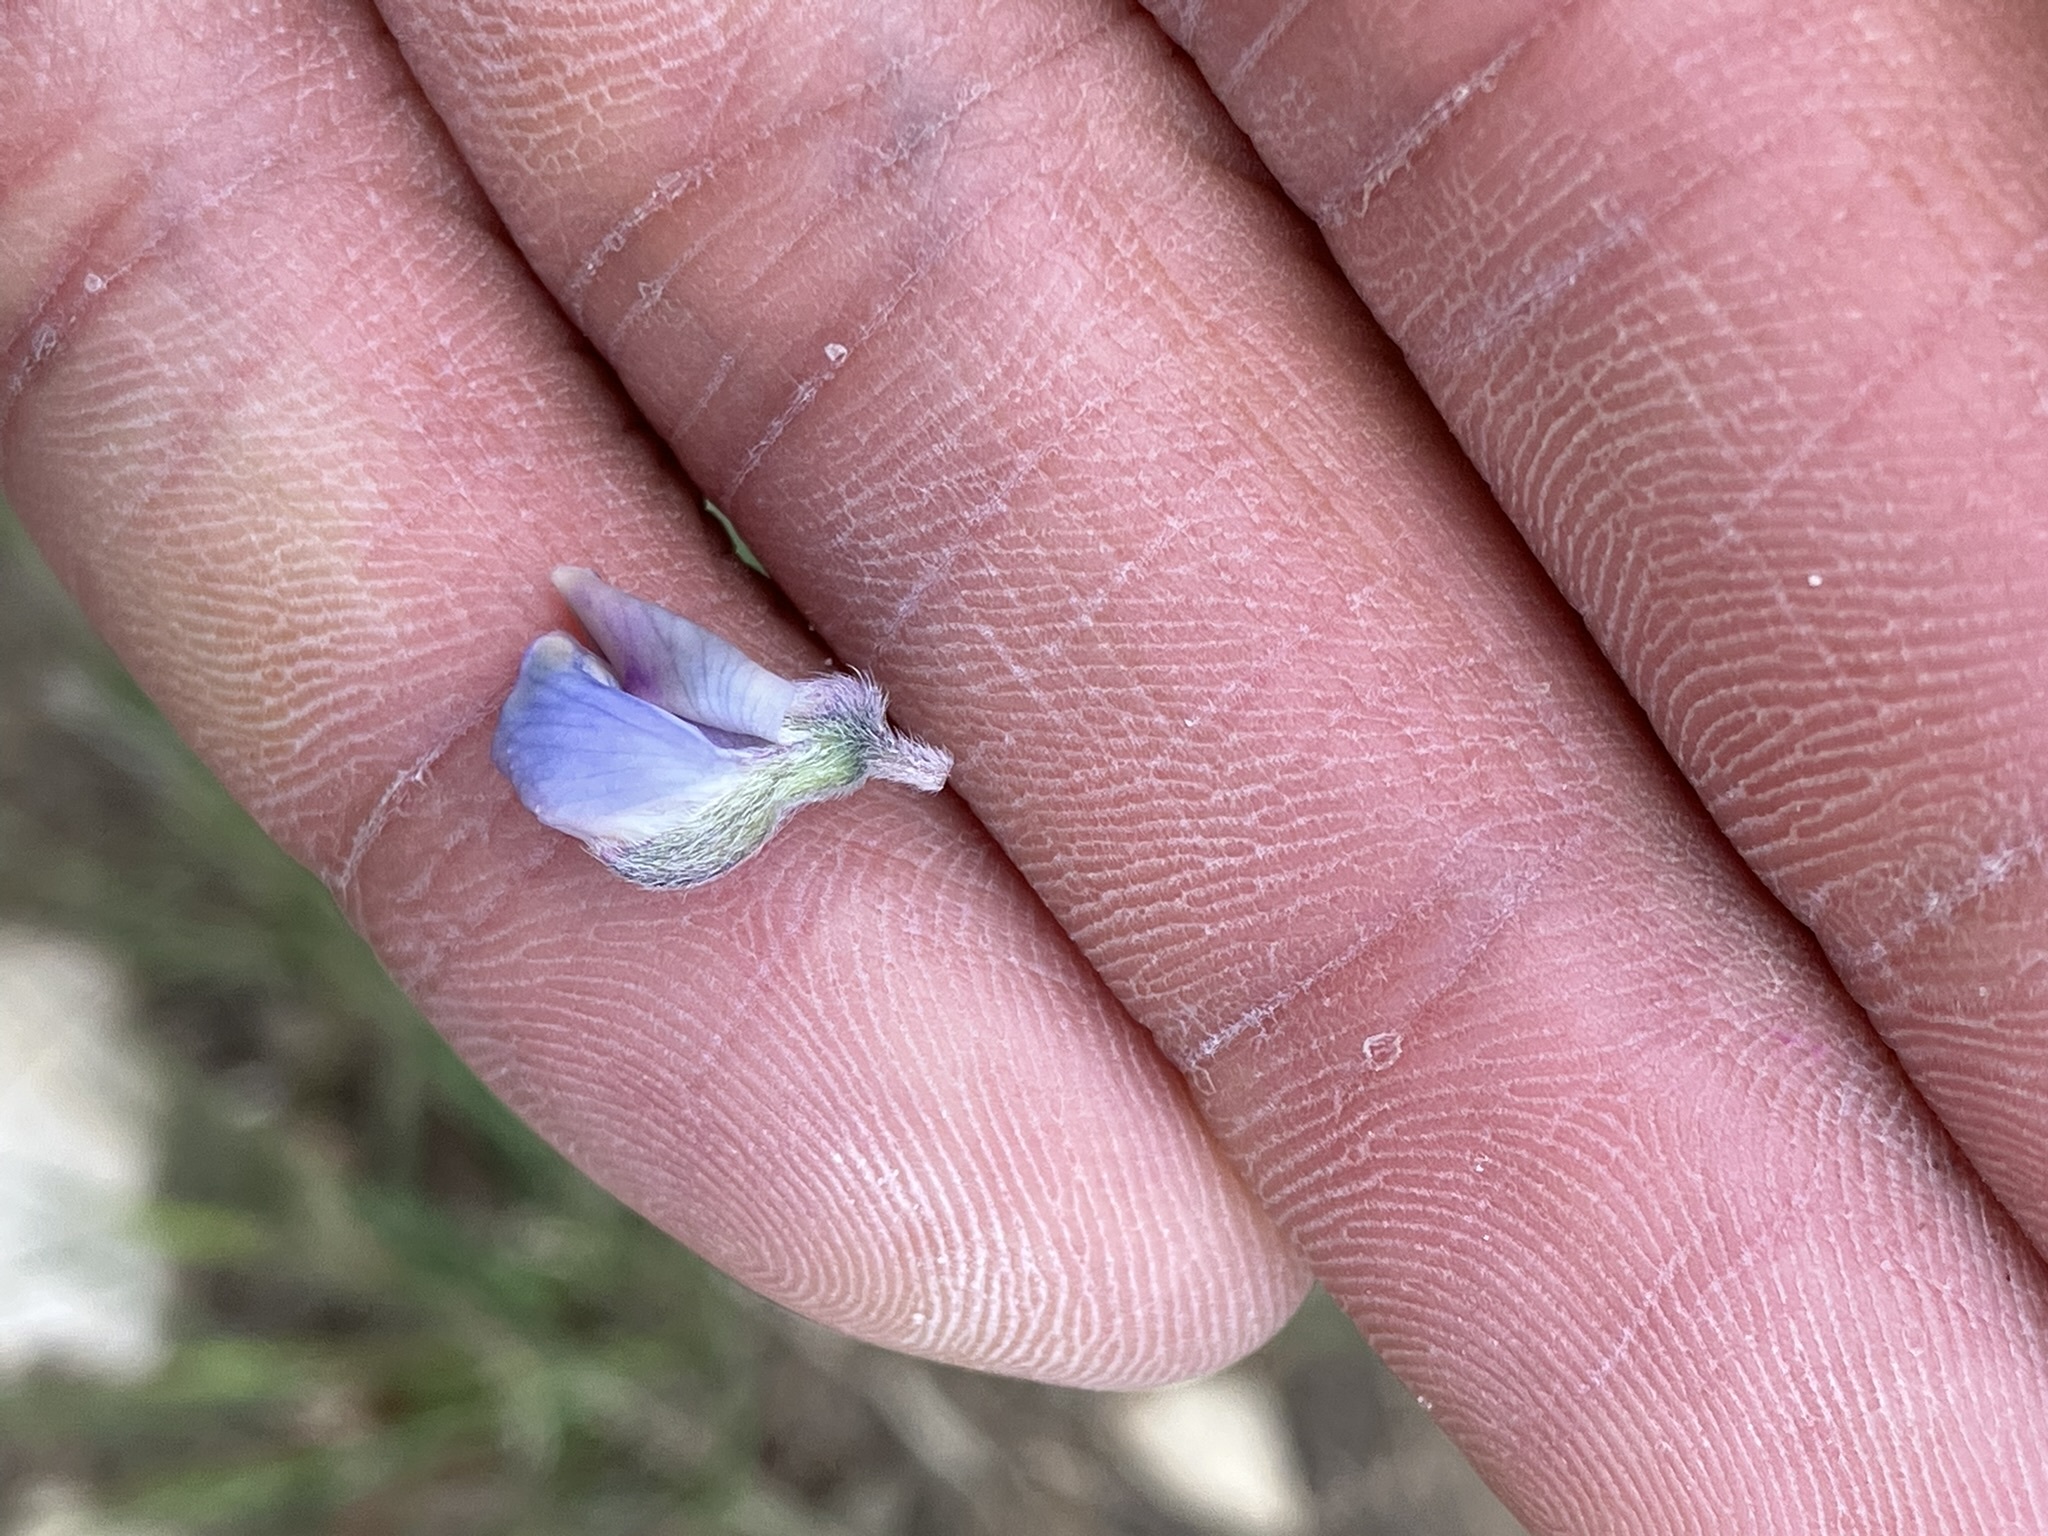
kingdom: Plantae
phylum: Tracheophyta
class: Magnoliopsida
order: Fabales
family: Fabaceae
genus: Lupinus
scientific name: Lupinus argenteus
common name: Silvery lupine
